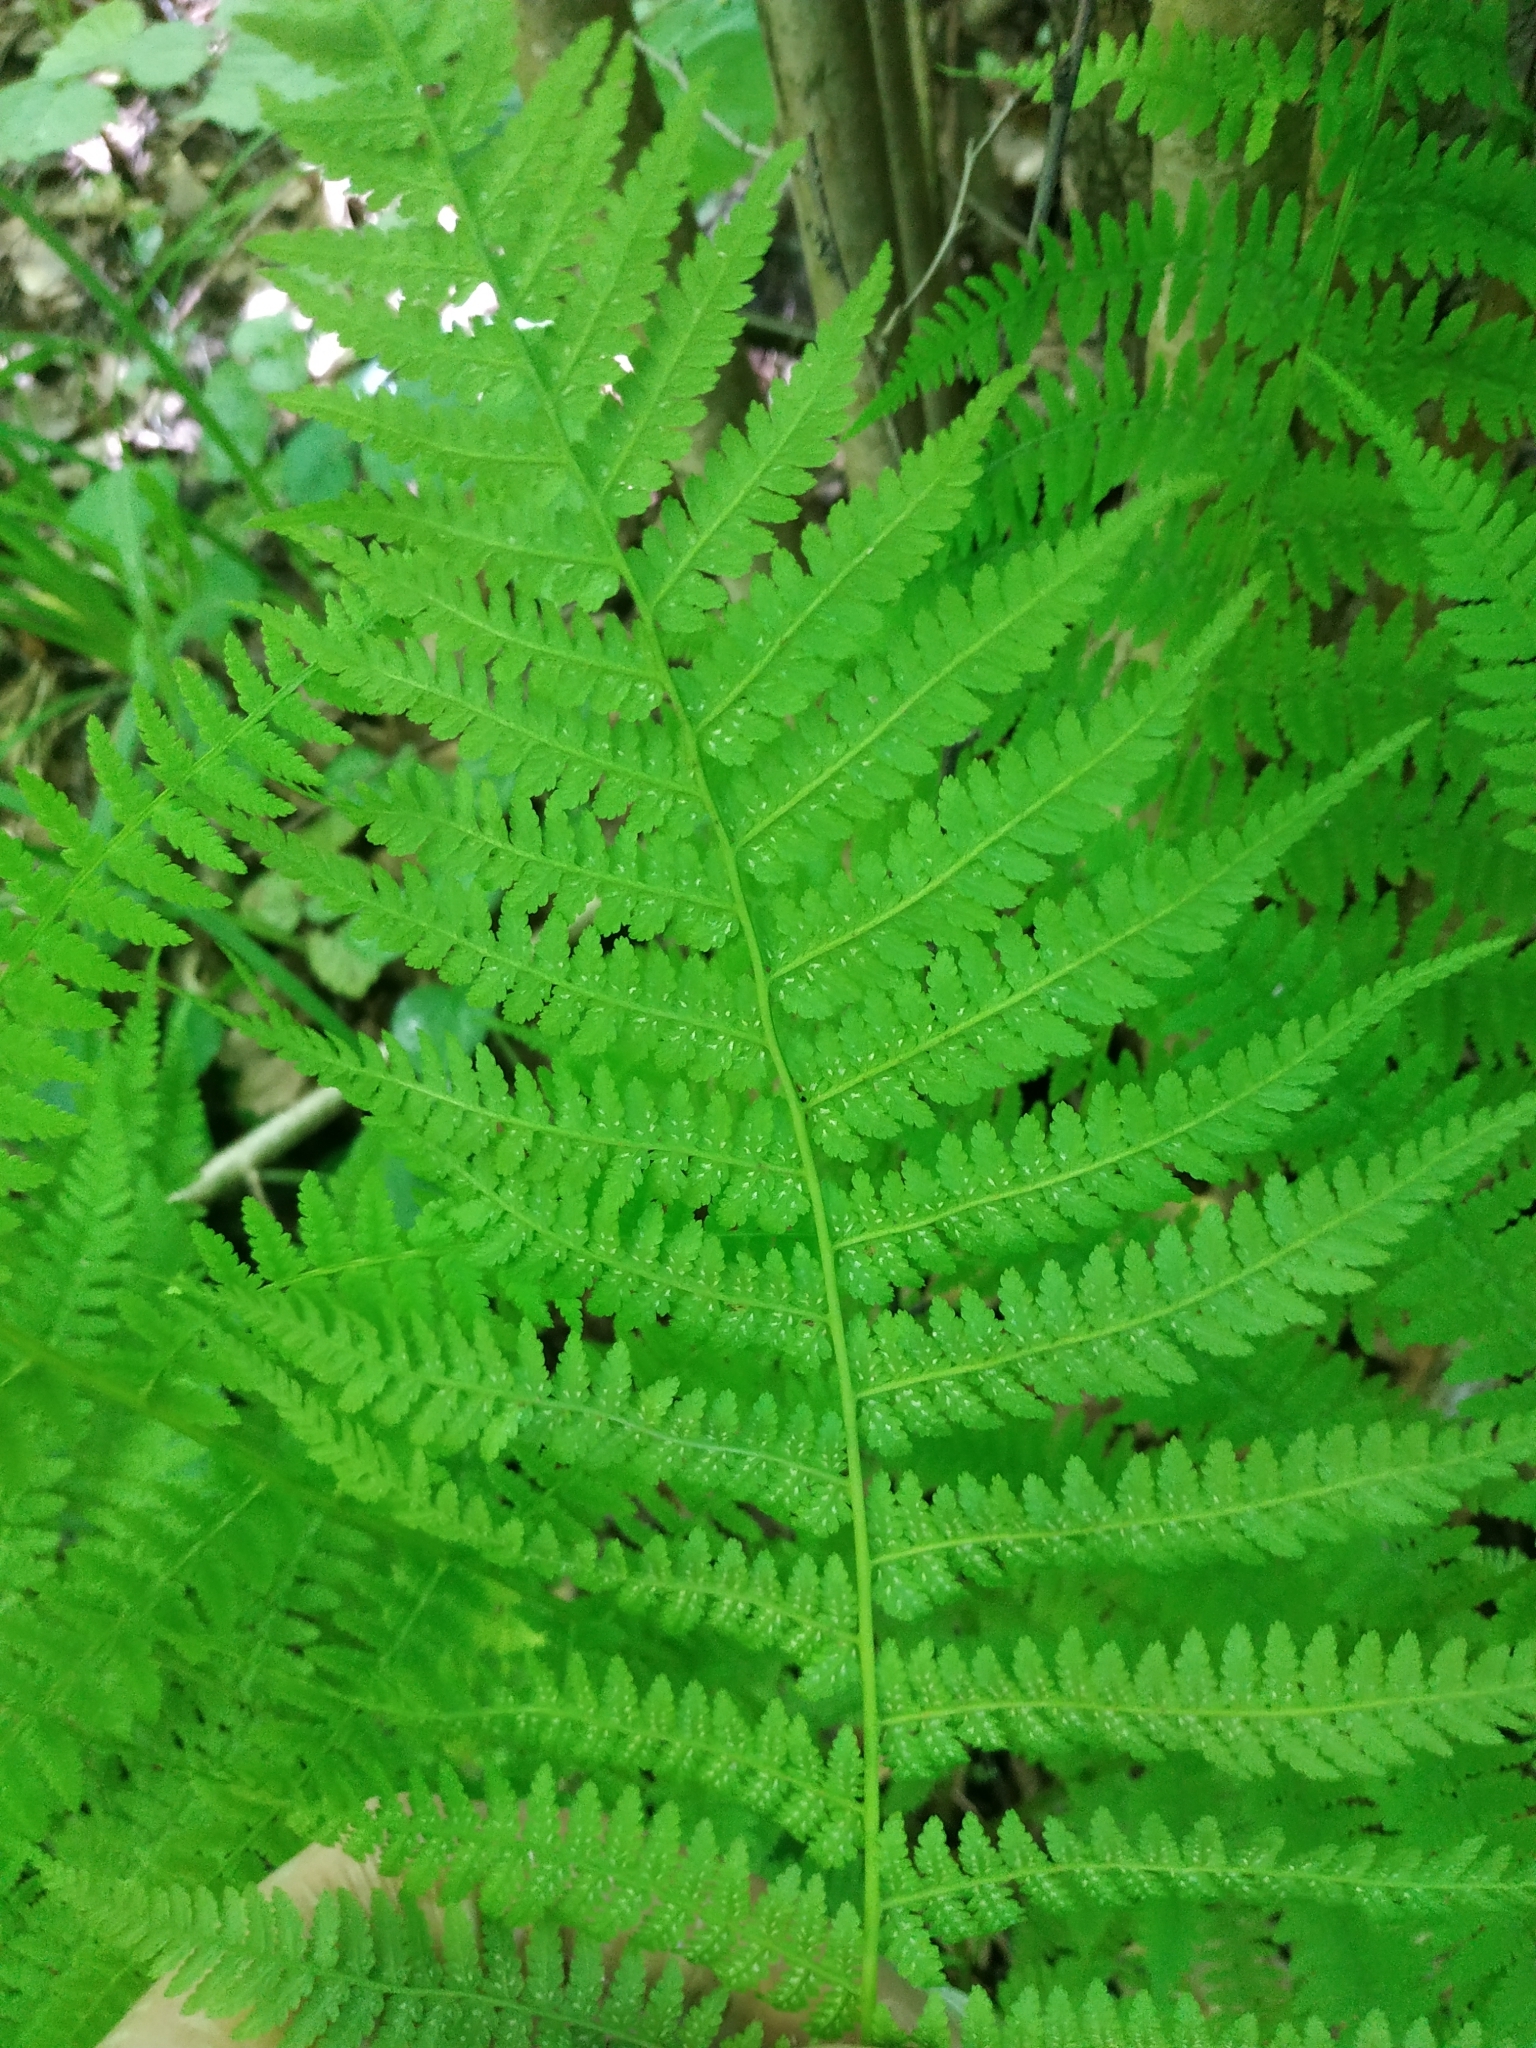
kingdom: Plantae
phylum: Tracheophyta
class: Polypodiopsida
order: Polypodiales
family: Athyriaceae
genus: Athyrium
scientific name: Athyrium filix-femina
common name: Lady fern
